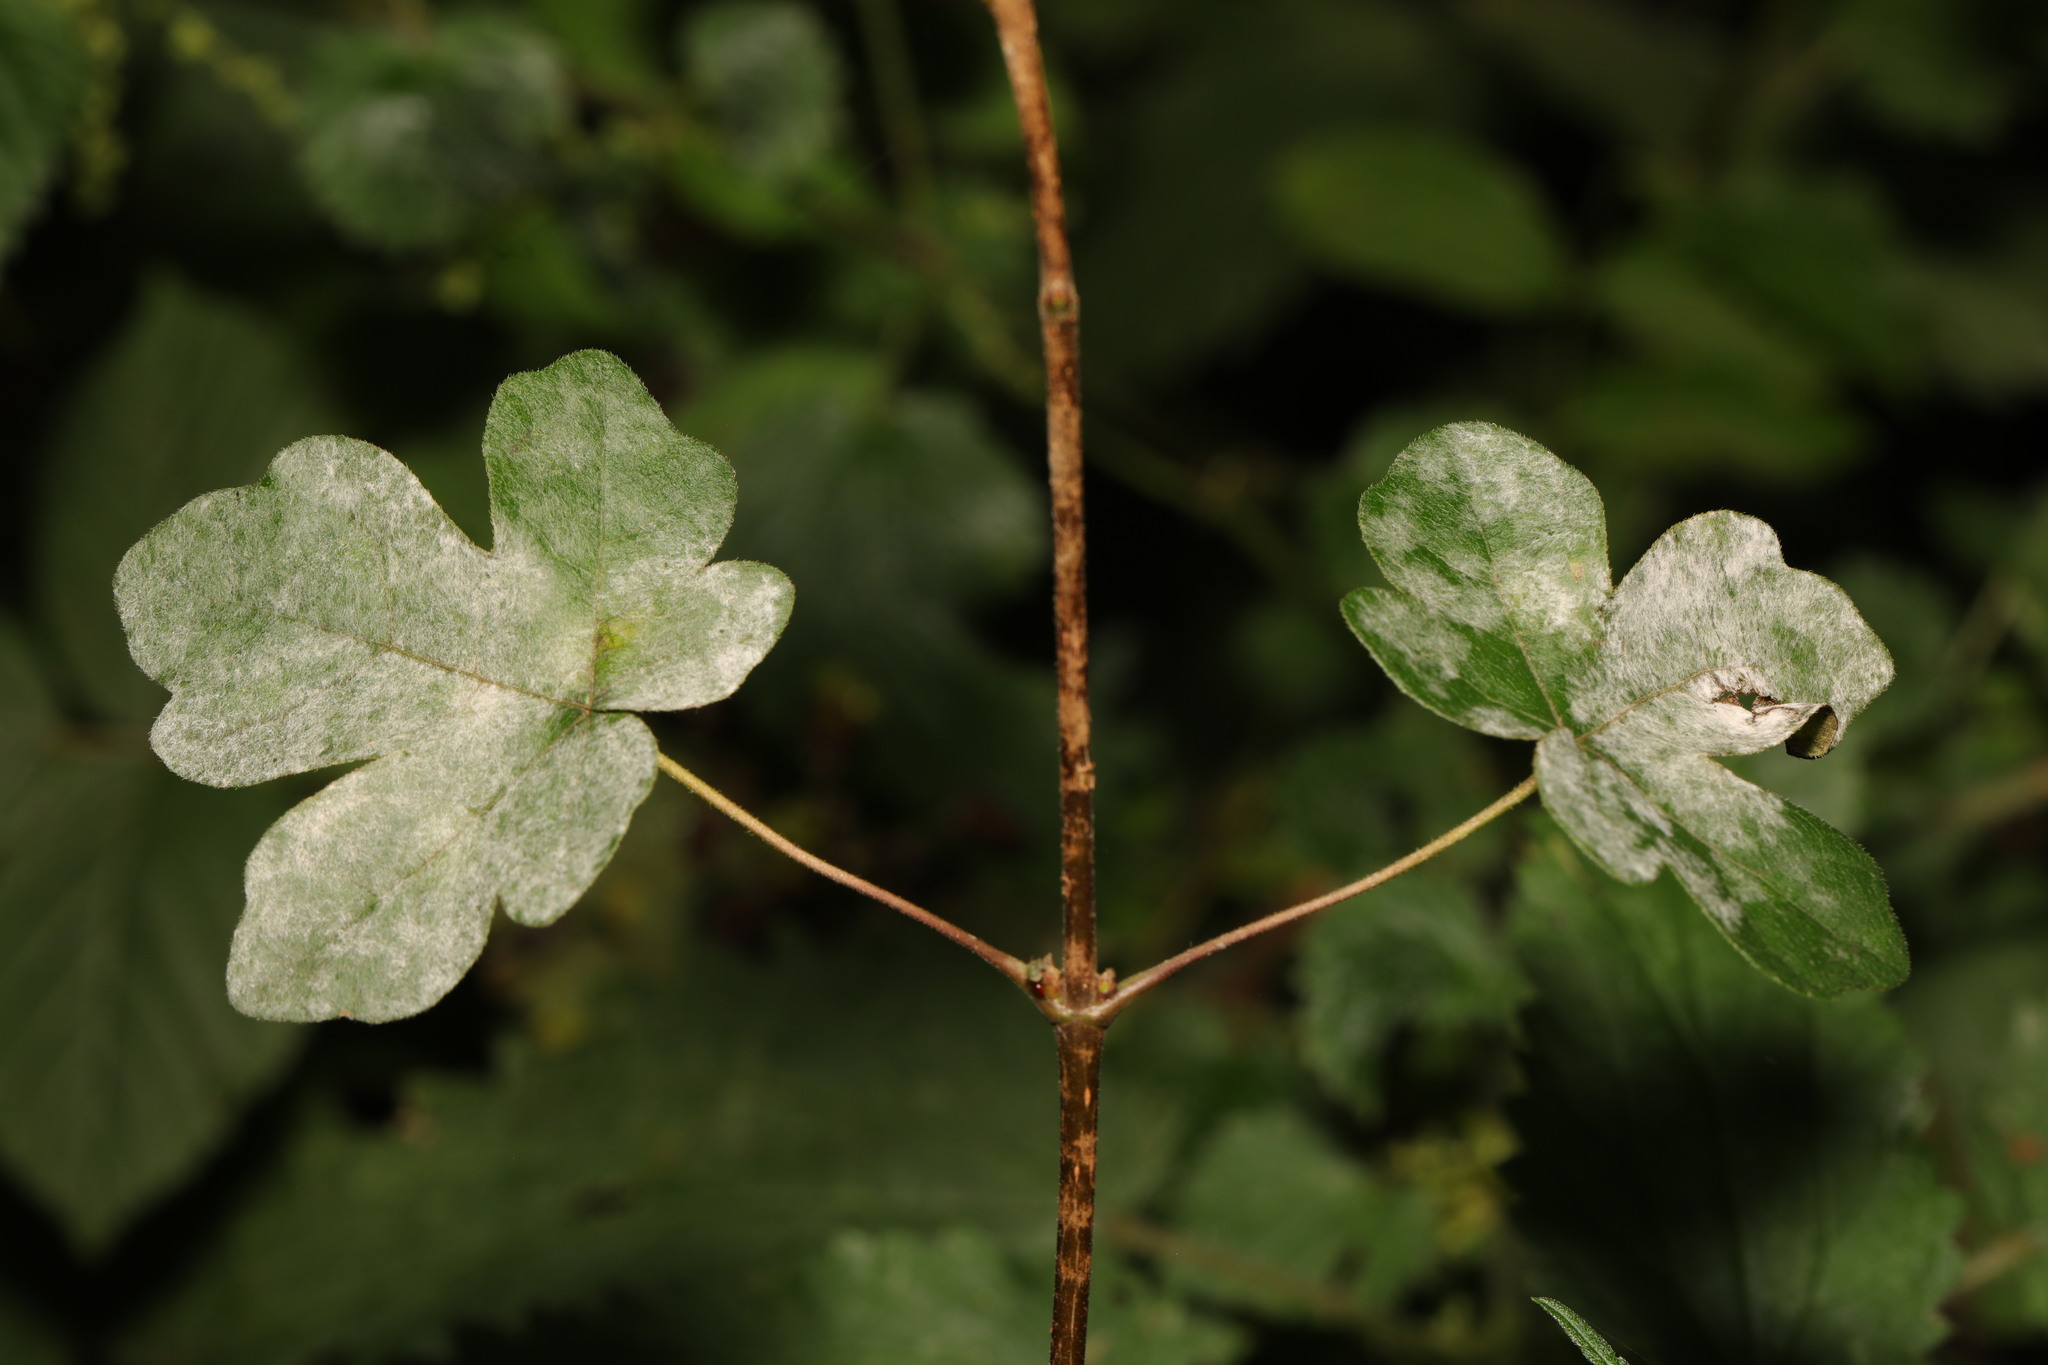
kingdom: Fungi
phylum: Ascomycota
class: Leotiomycetes
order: Helotiales
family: Erysiphaceae
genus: Sawadaea
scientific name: Sawadaea bicornis
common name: Maple mildew
